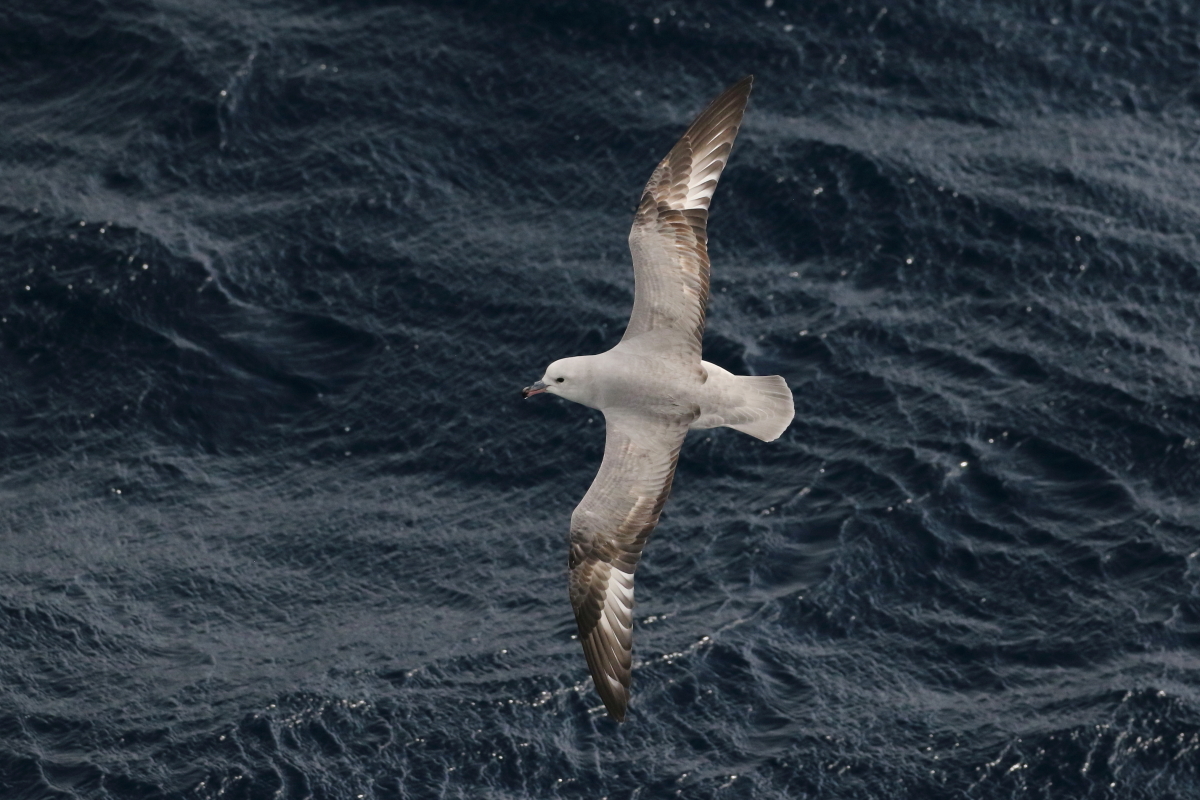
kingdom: Animalia
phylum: Chordata
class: Aves
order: Procellariiformes
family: Procellariidae
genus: Fulmarus
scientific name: Fulmarus glacialoides
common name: Southern fulmar
